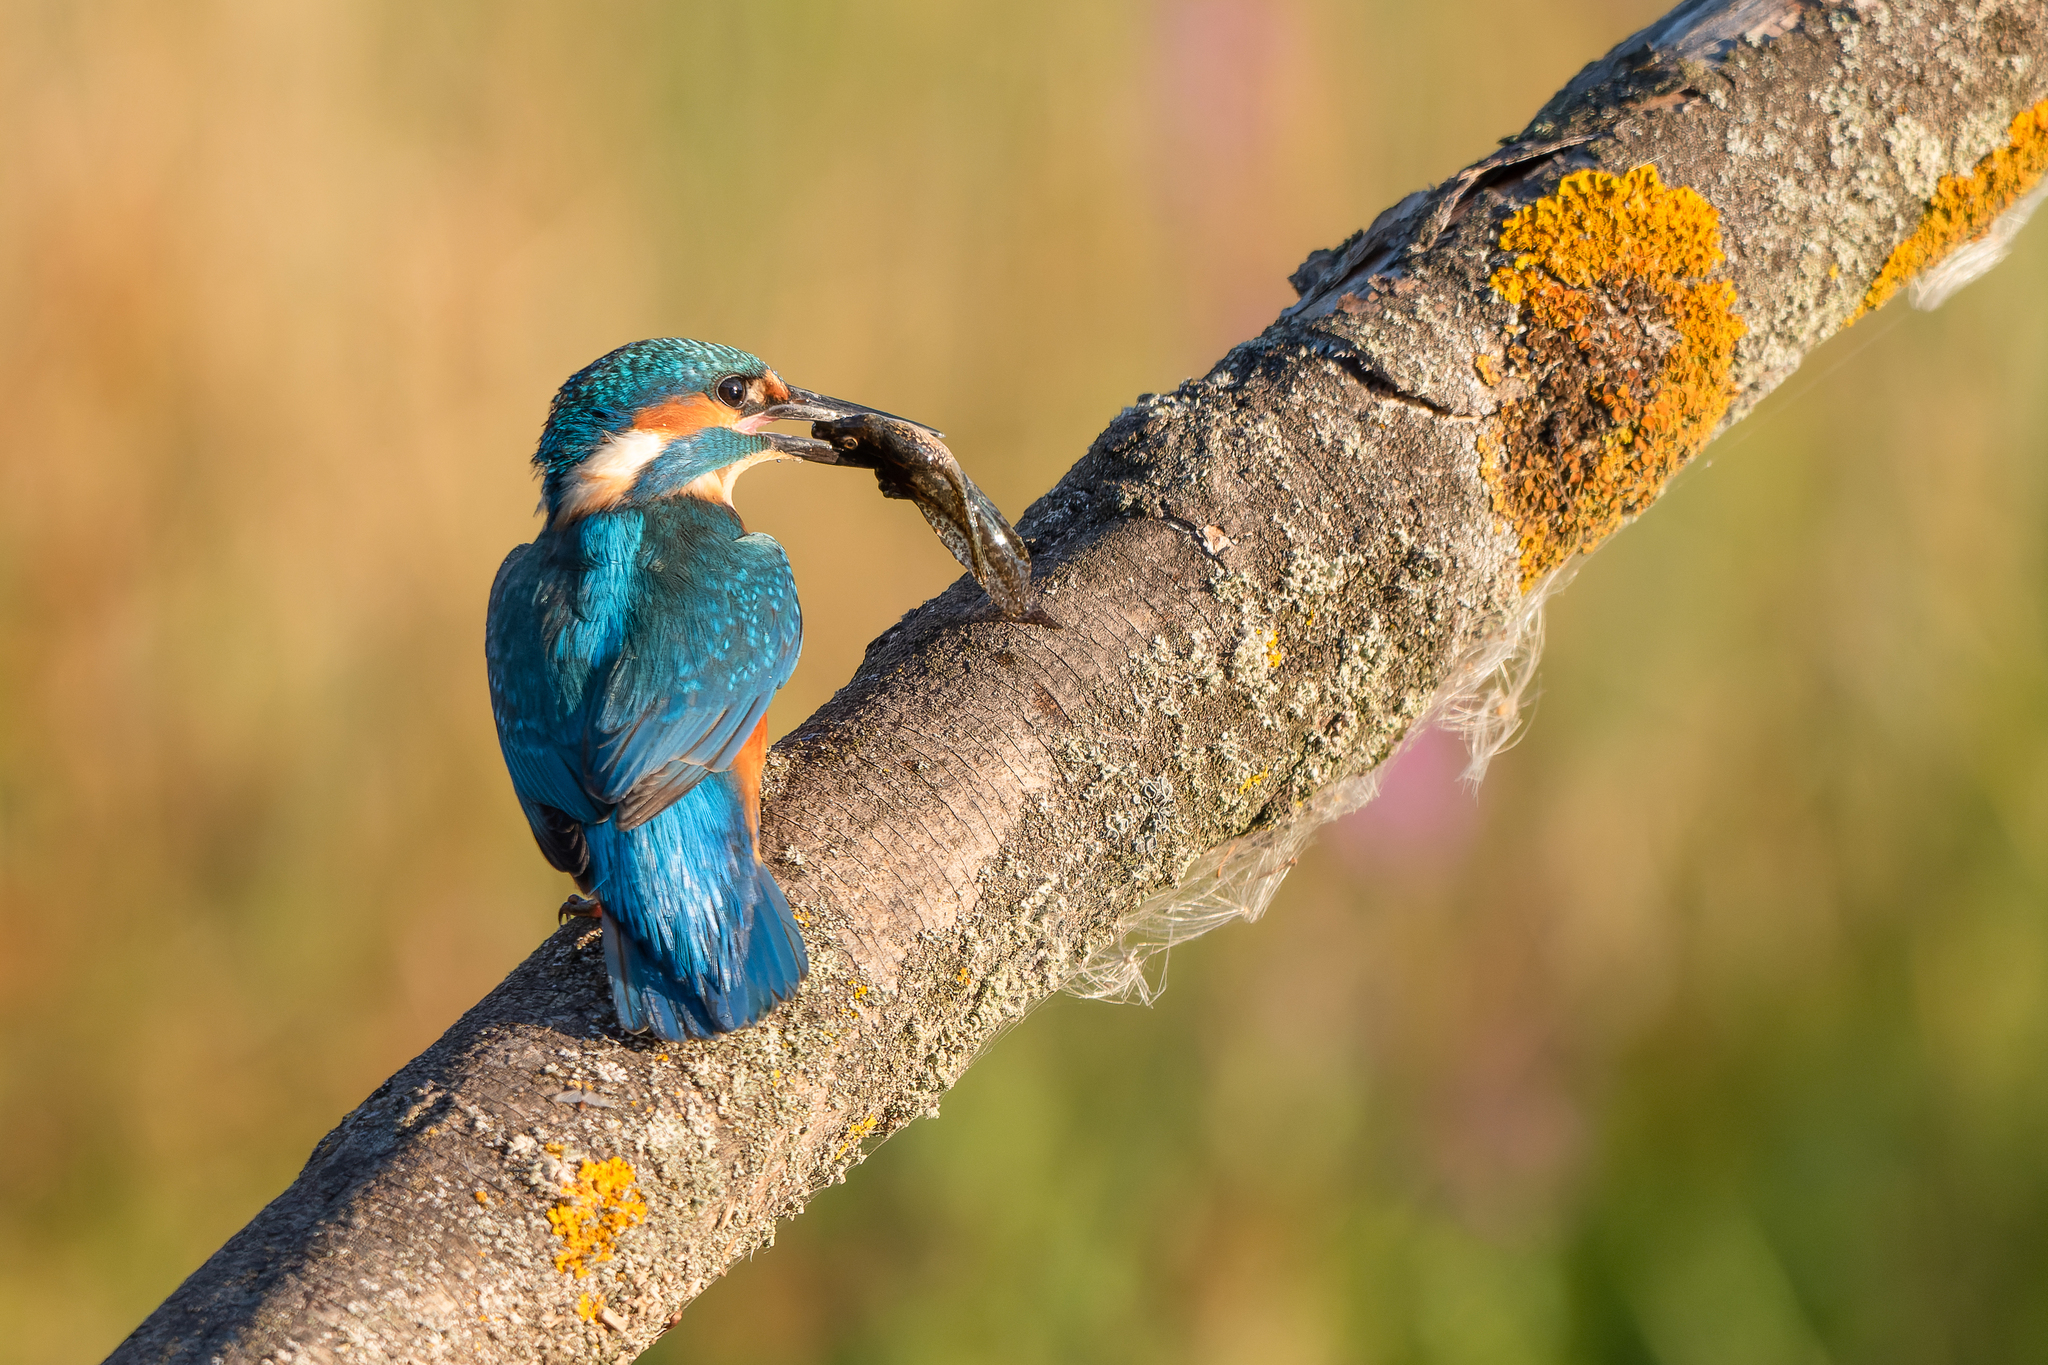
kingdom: Animalia
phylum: Chordata
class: Aves
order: Coraciiformes
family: Alcedinidae
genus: Alcedo
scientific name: Alcedo atthis
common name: Common kingfisher
